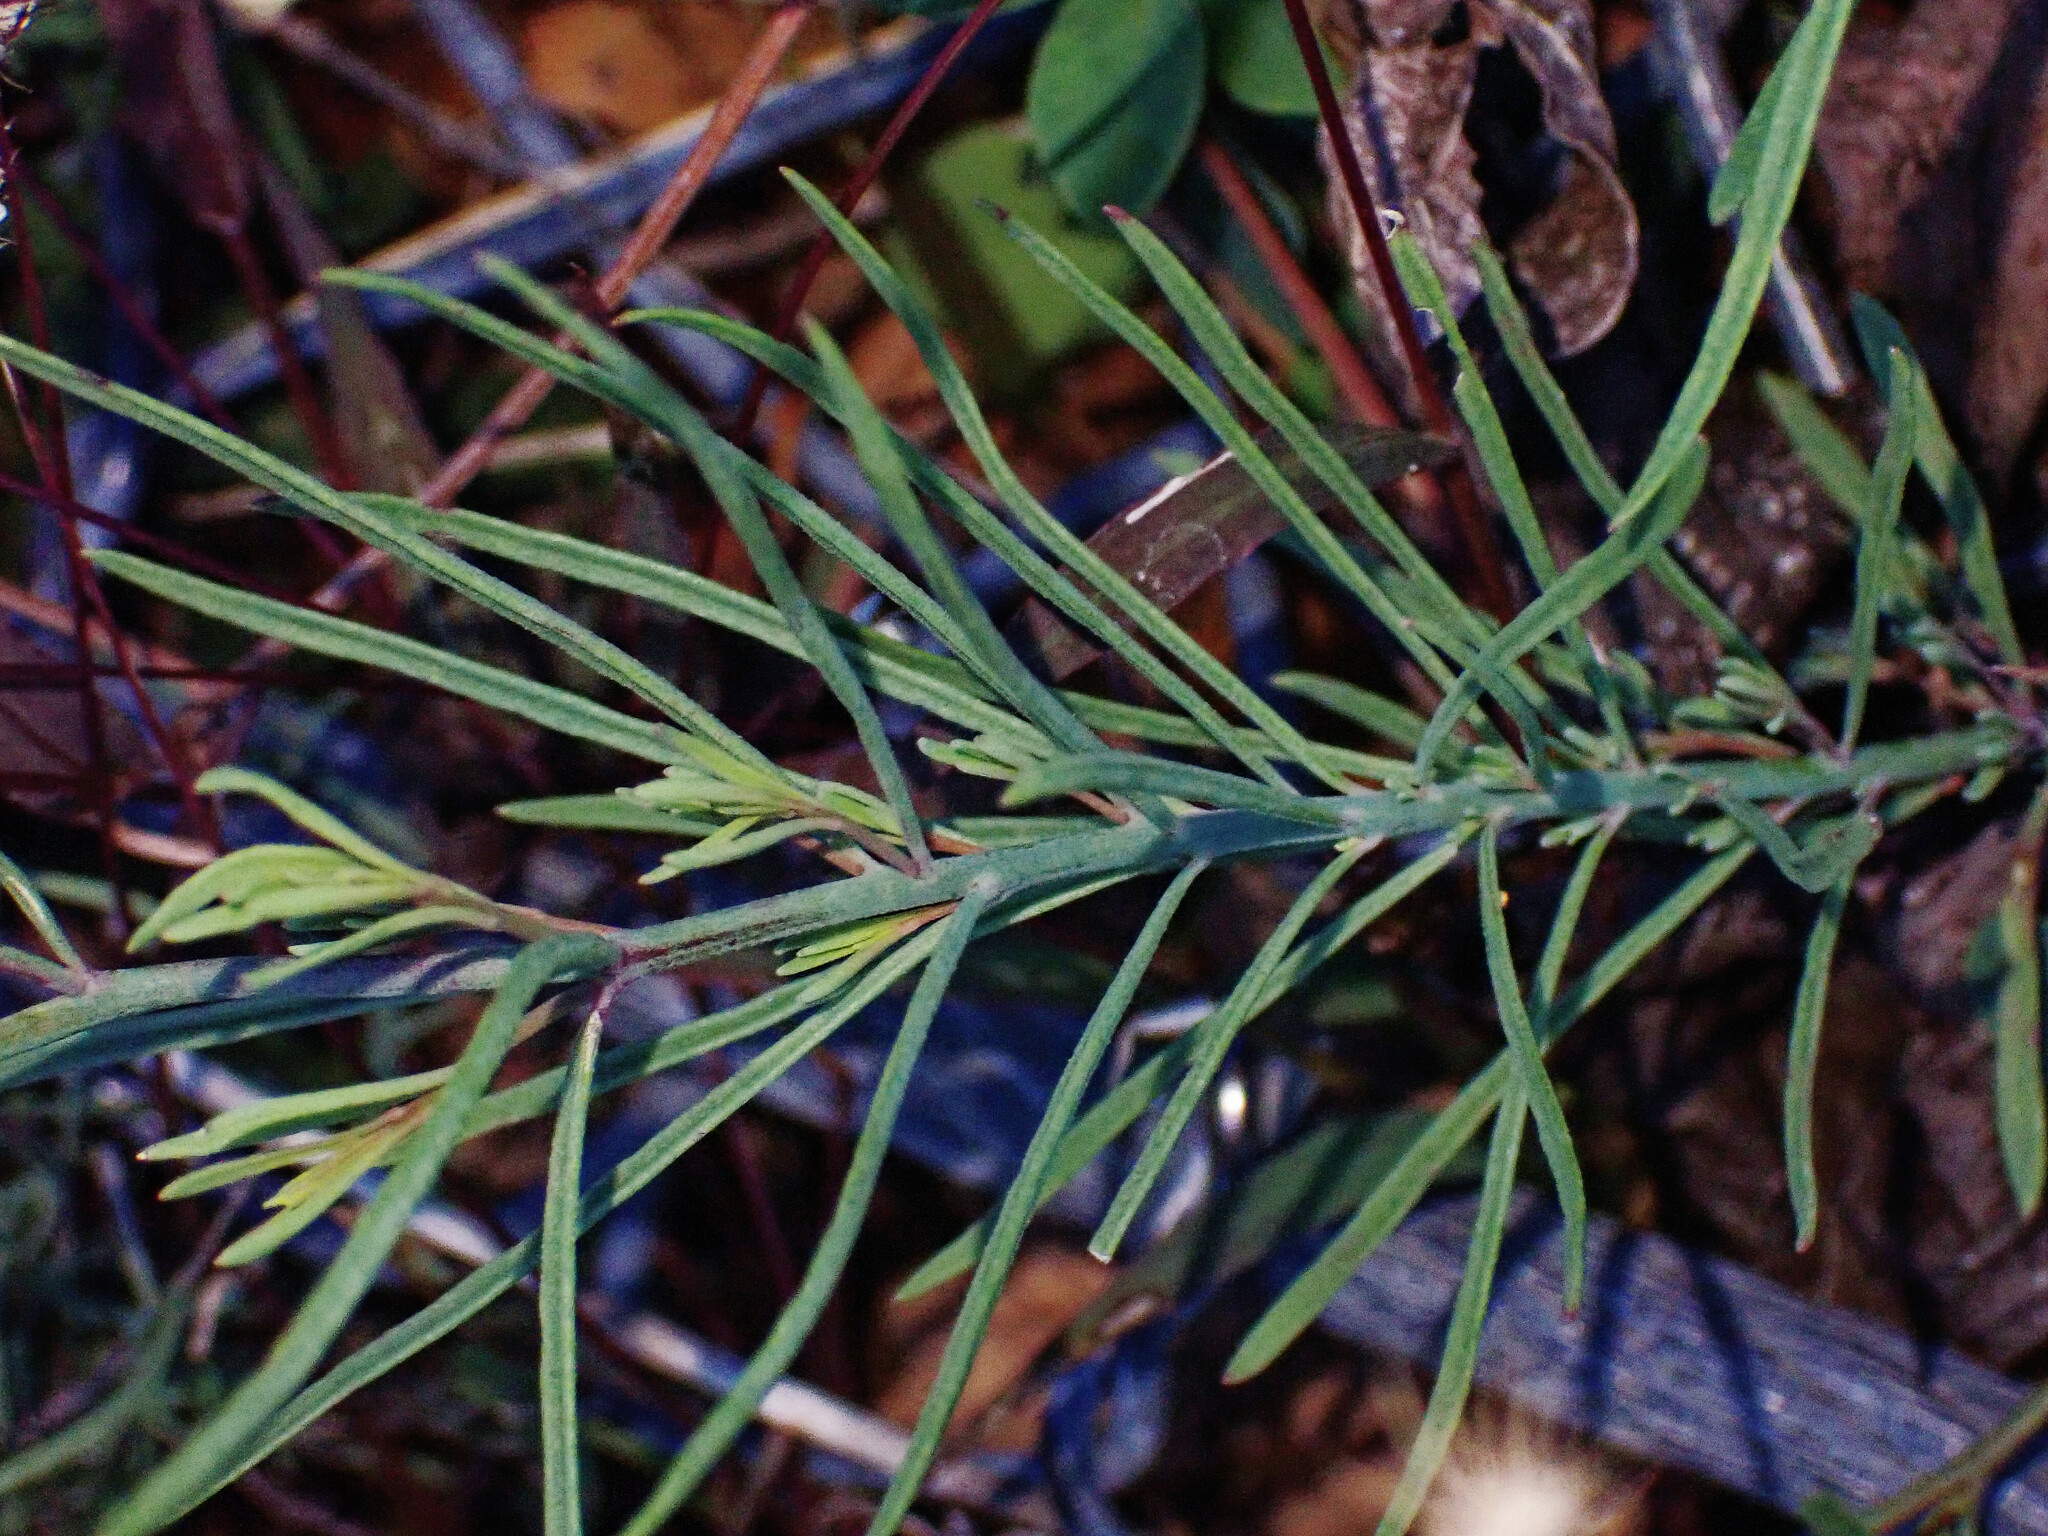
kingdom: Plantae
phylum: Tracheophyta
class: Magnoliopsida
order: Lamiales
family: Plantaginaceae
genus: Linaria
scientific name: Linaria repens
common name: Pale toadflax
